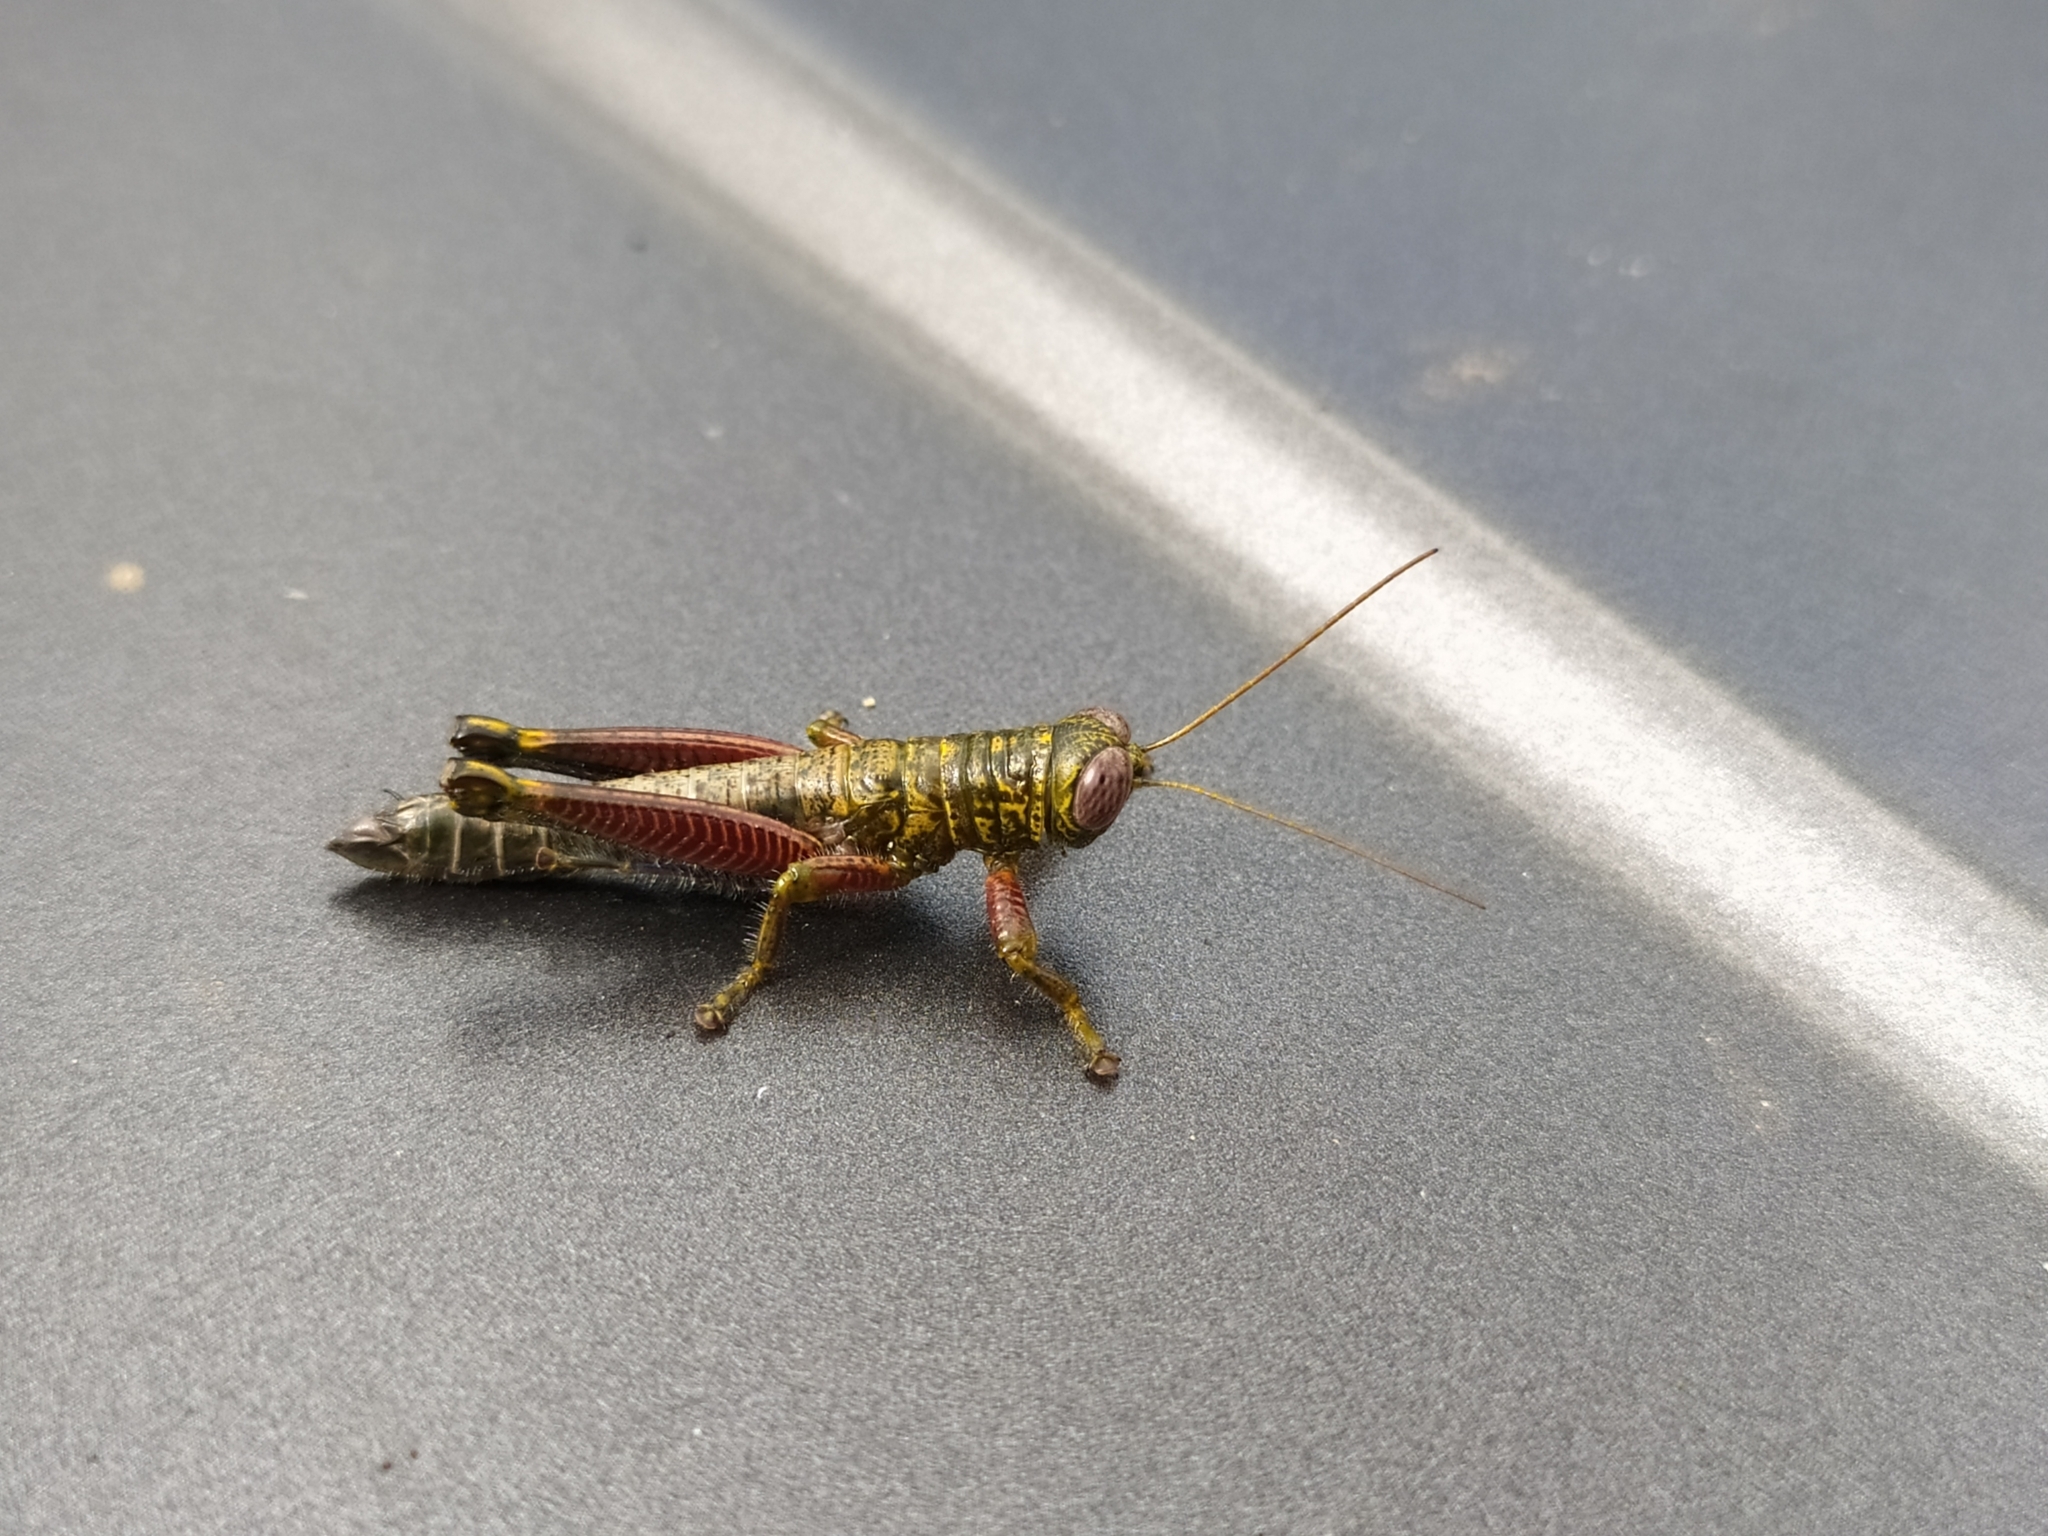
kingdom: Animalia
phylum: Arthropoda
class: Insecta
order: Orthoptera
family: Acrididae
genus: Zeylanacris
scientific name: Zeylanacris continentalis
